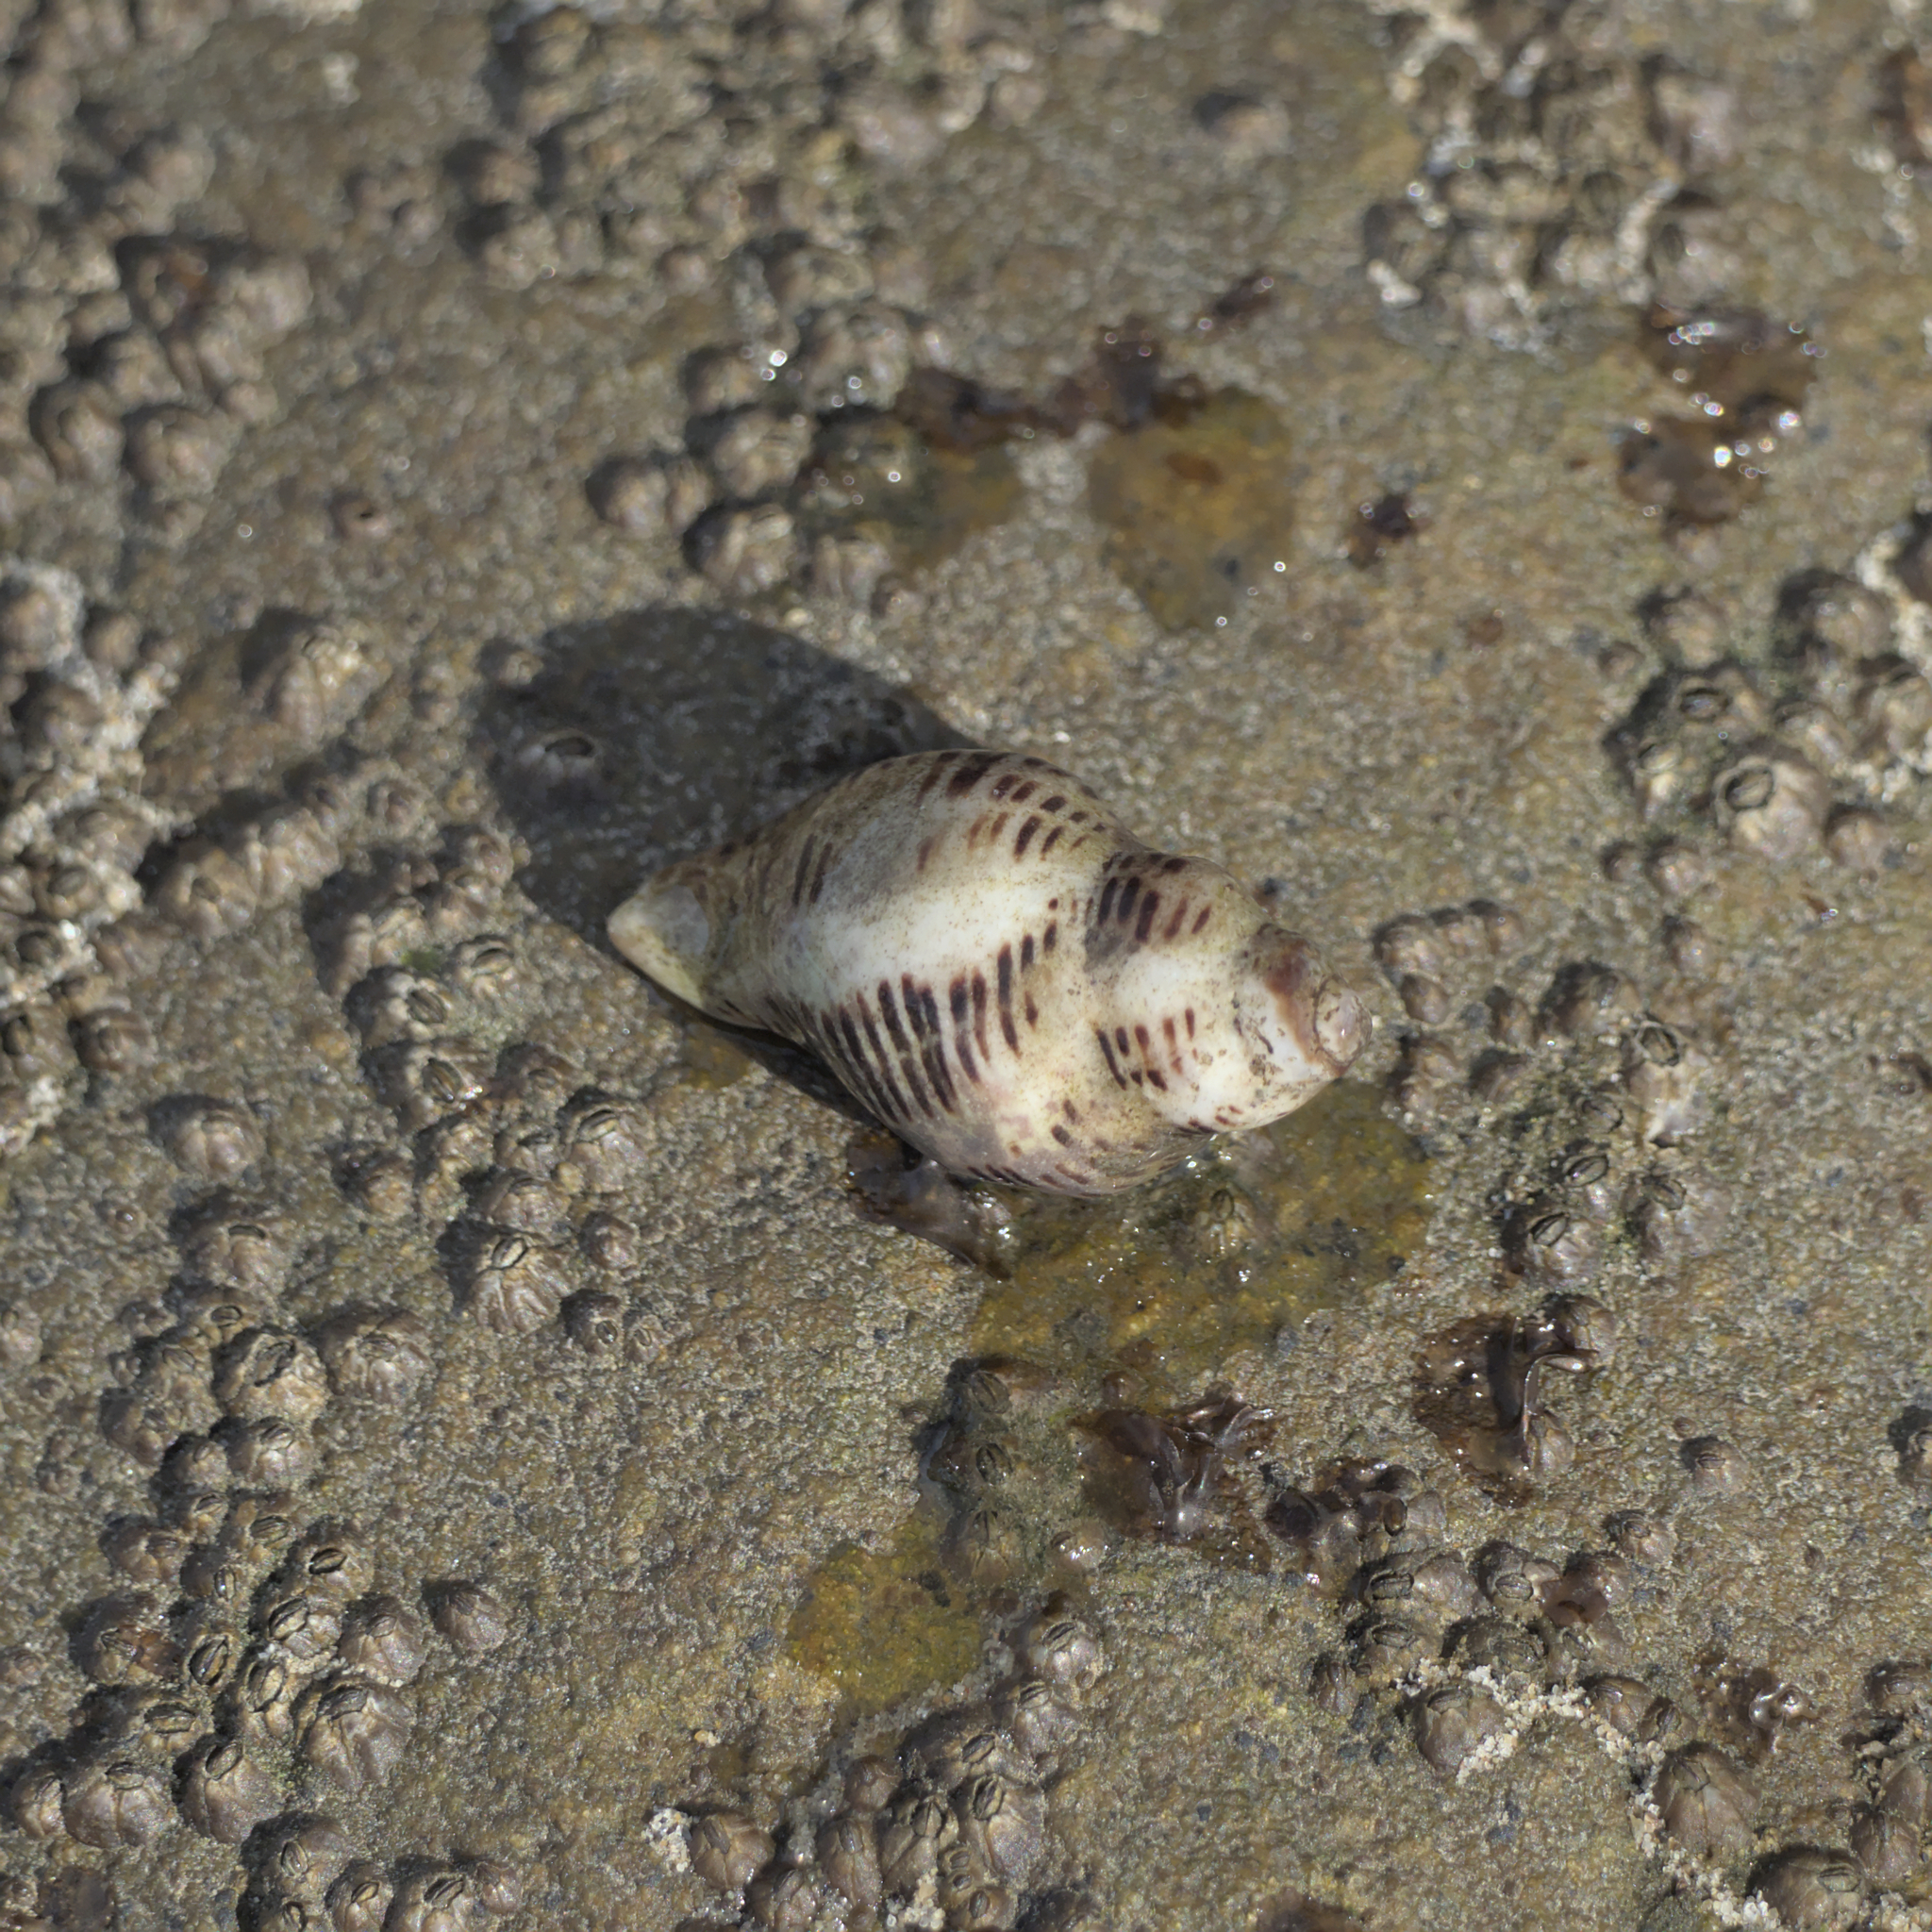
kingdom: Animalia
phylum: Mollusca
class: Gastropoda
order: Neogastropoda
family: Muricidae
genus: Acanthinucella
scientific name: Acanthinucella spirata
